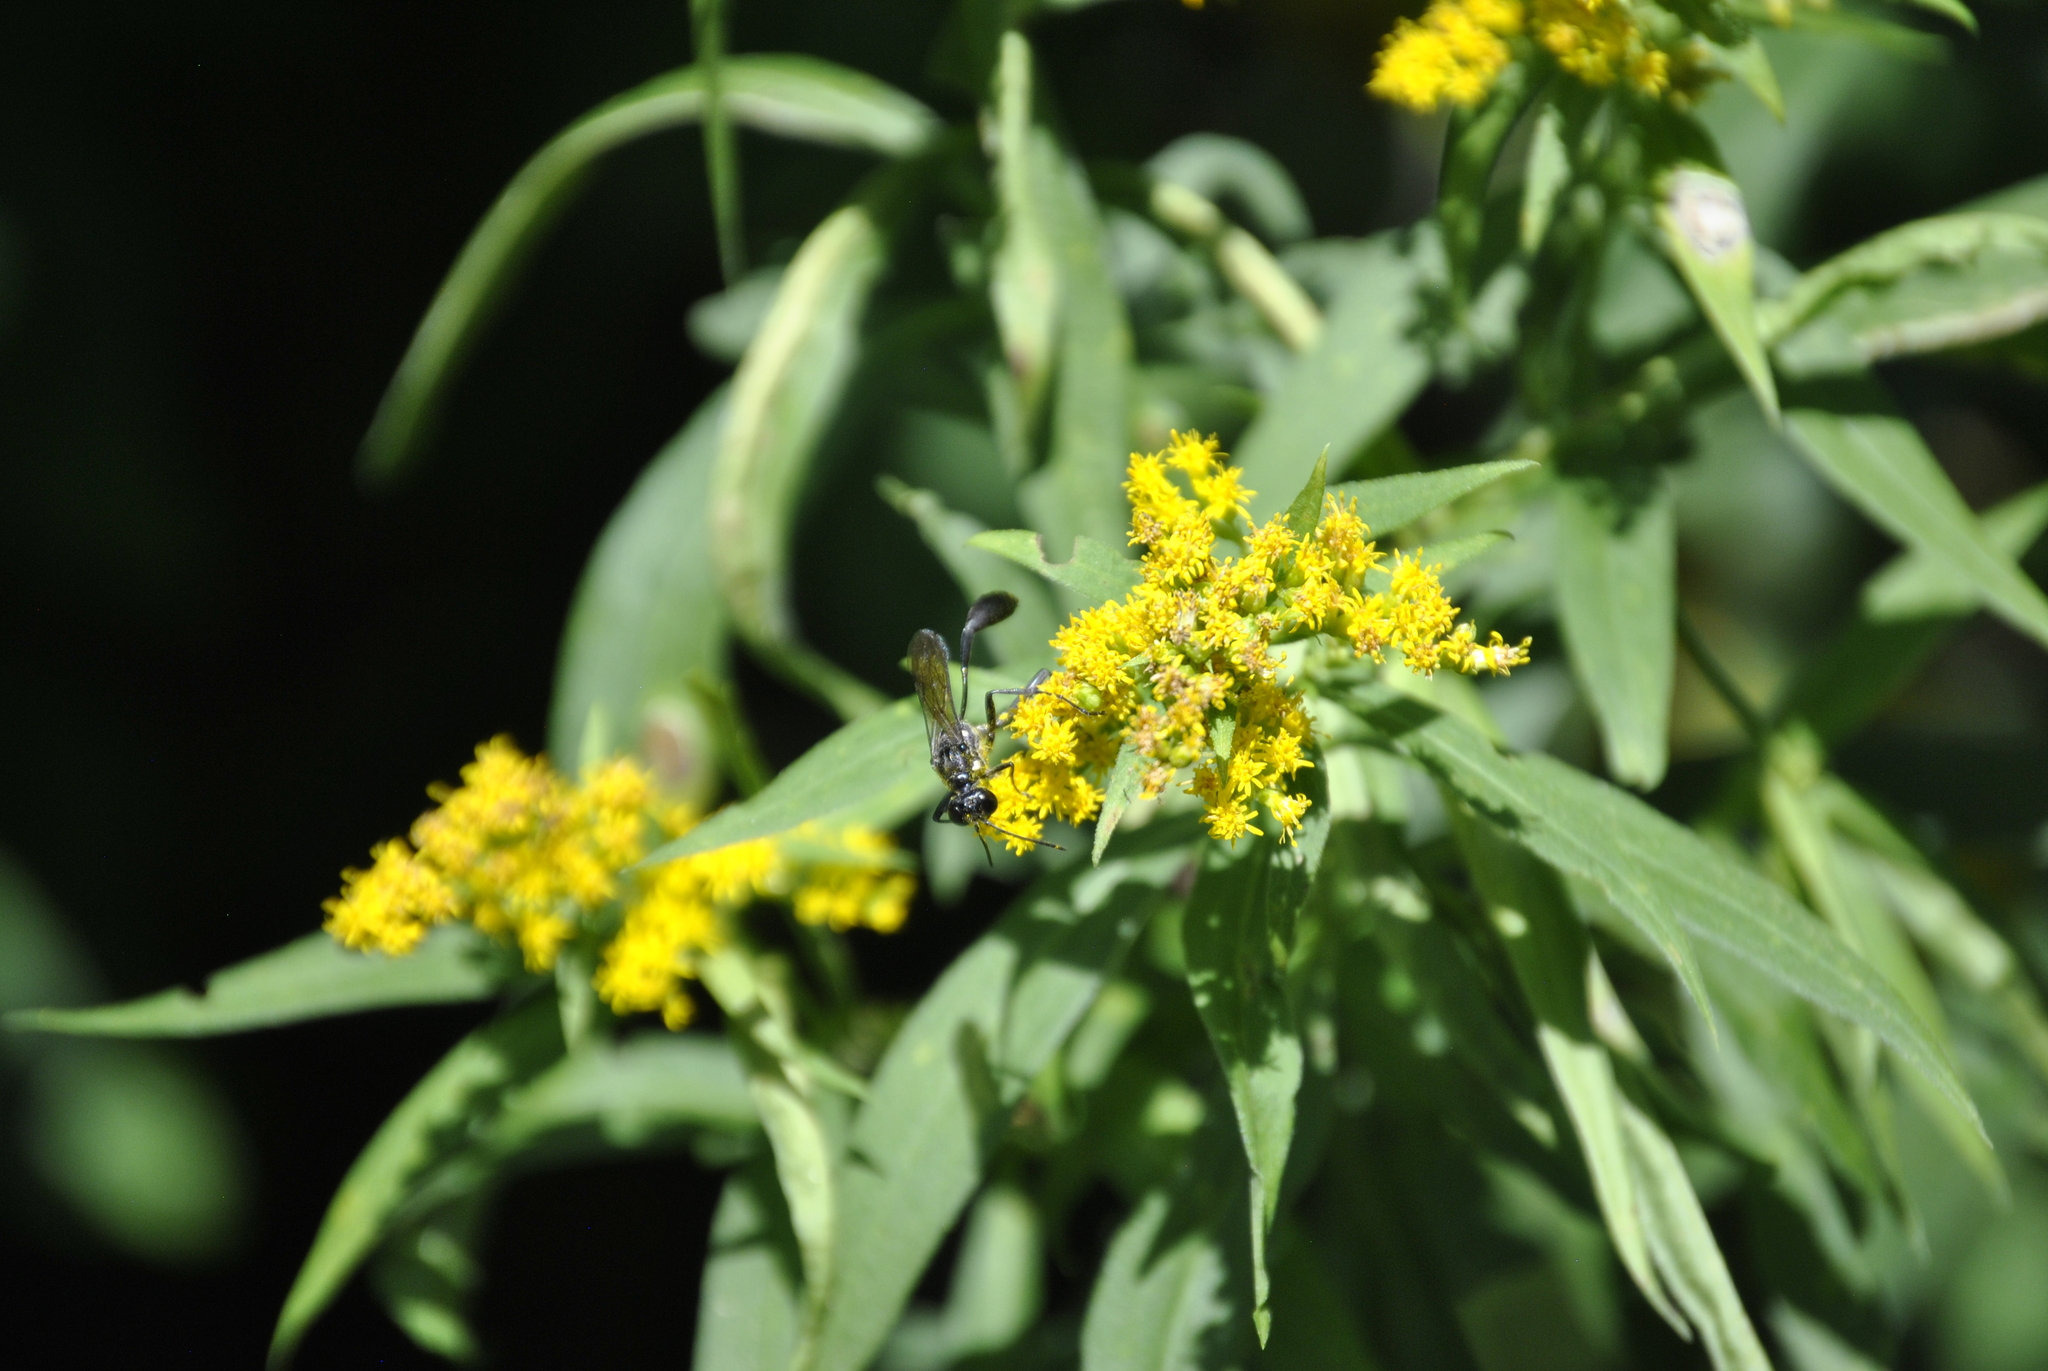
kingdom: Animalia
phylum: Arthropoda
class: Insecta
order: Hymenoptera
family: Sphecidae
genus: Eremnophila
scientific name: Eremnophila aureonotata
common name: Gold-marked thread-waisted wasp
